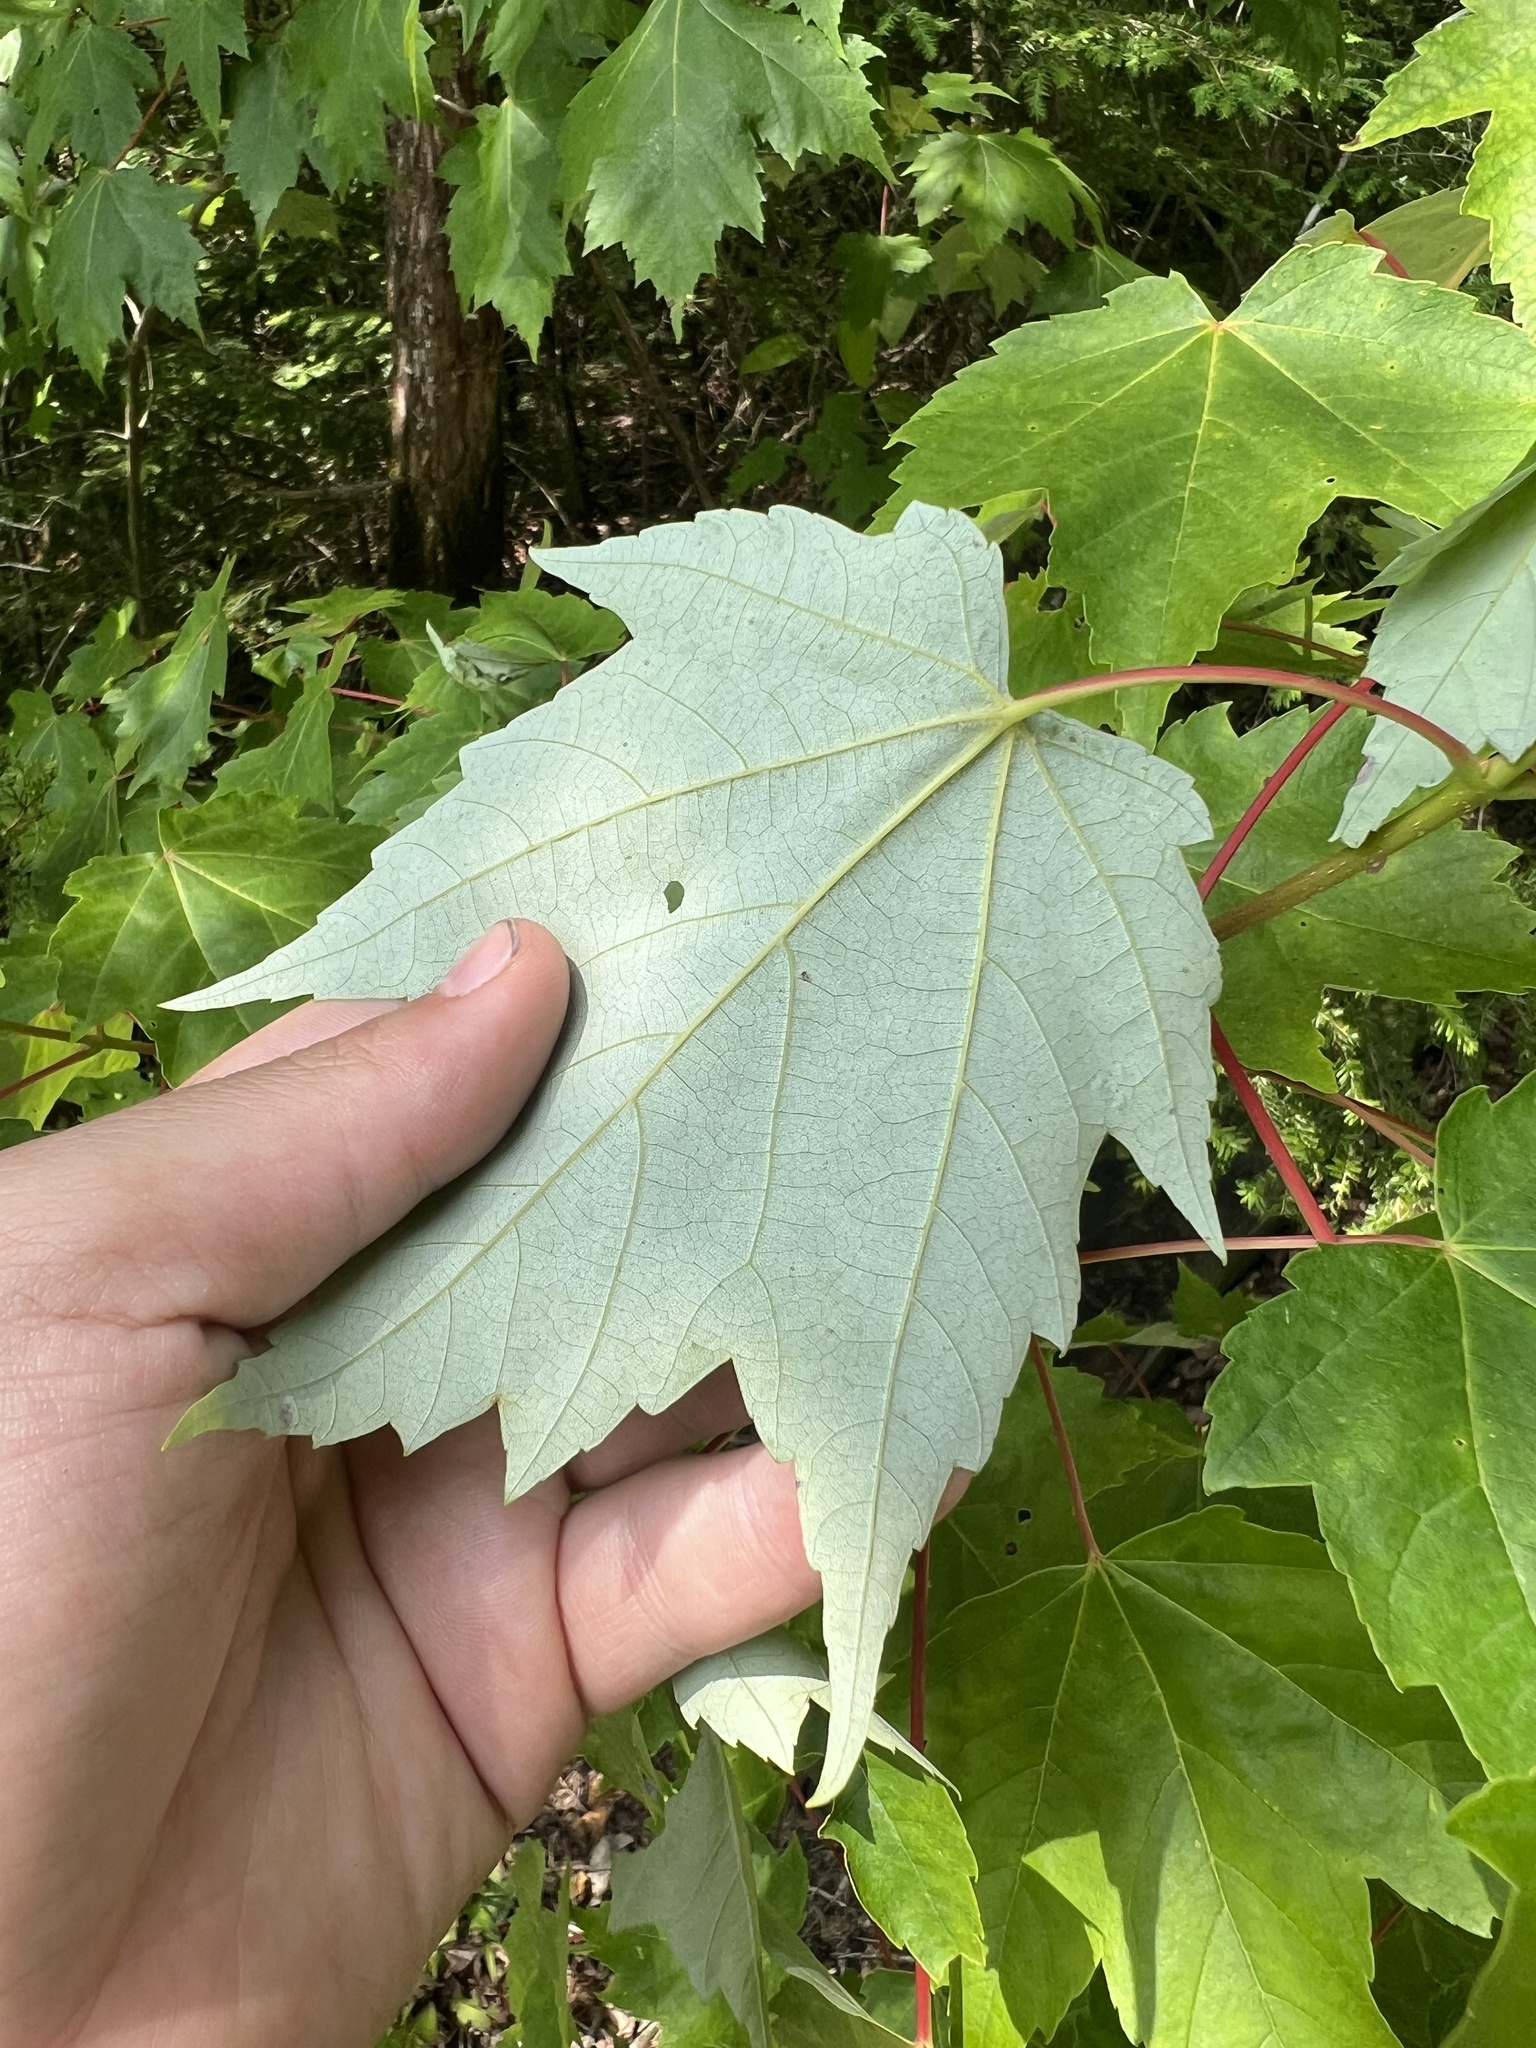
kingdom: Plantae
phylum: Tracheophyta
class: Magnoliopsida
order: Sapindales
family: Sapindaceae
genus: Acer
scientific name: Acer rubrum
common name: Red maple
